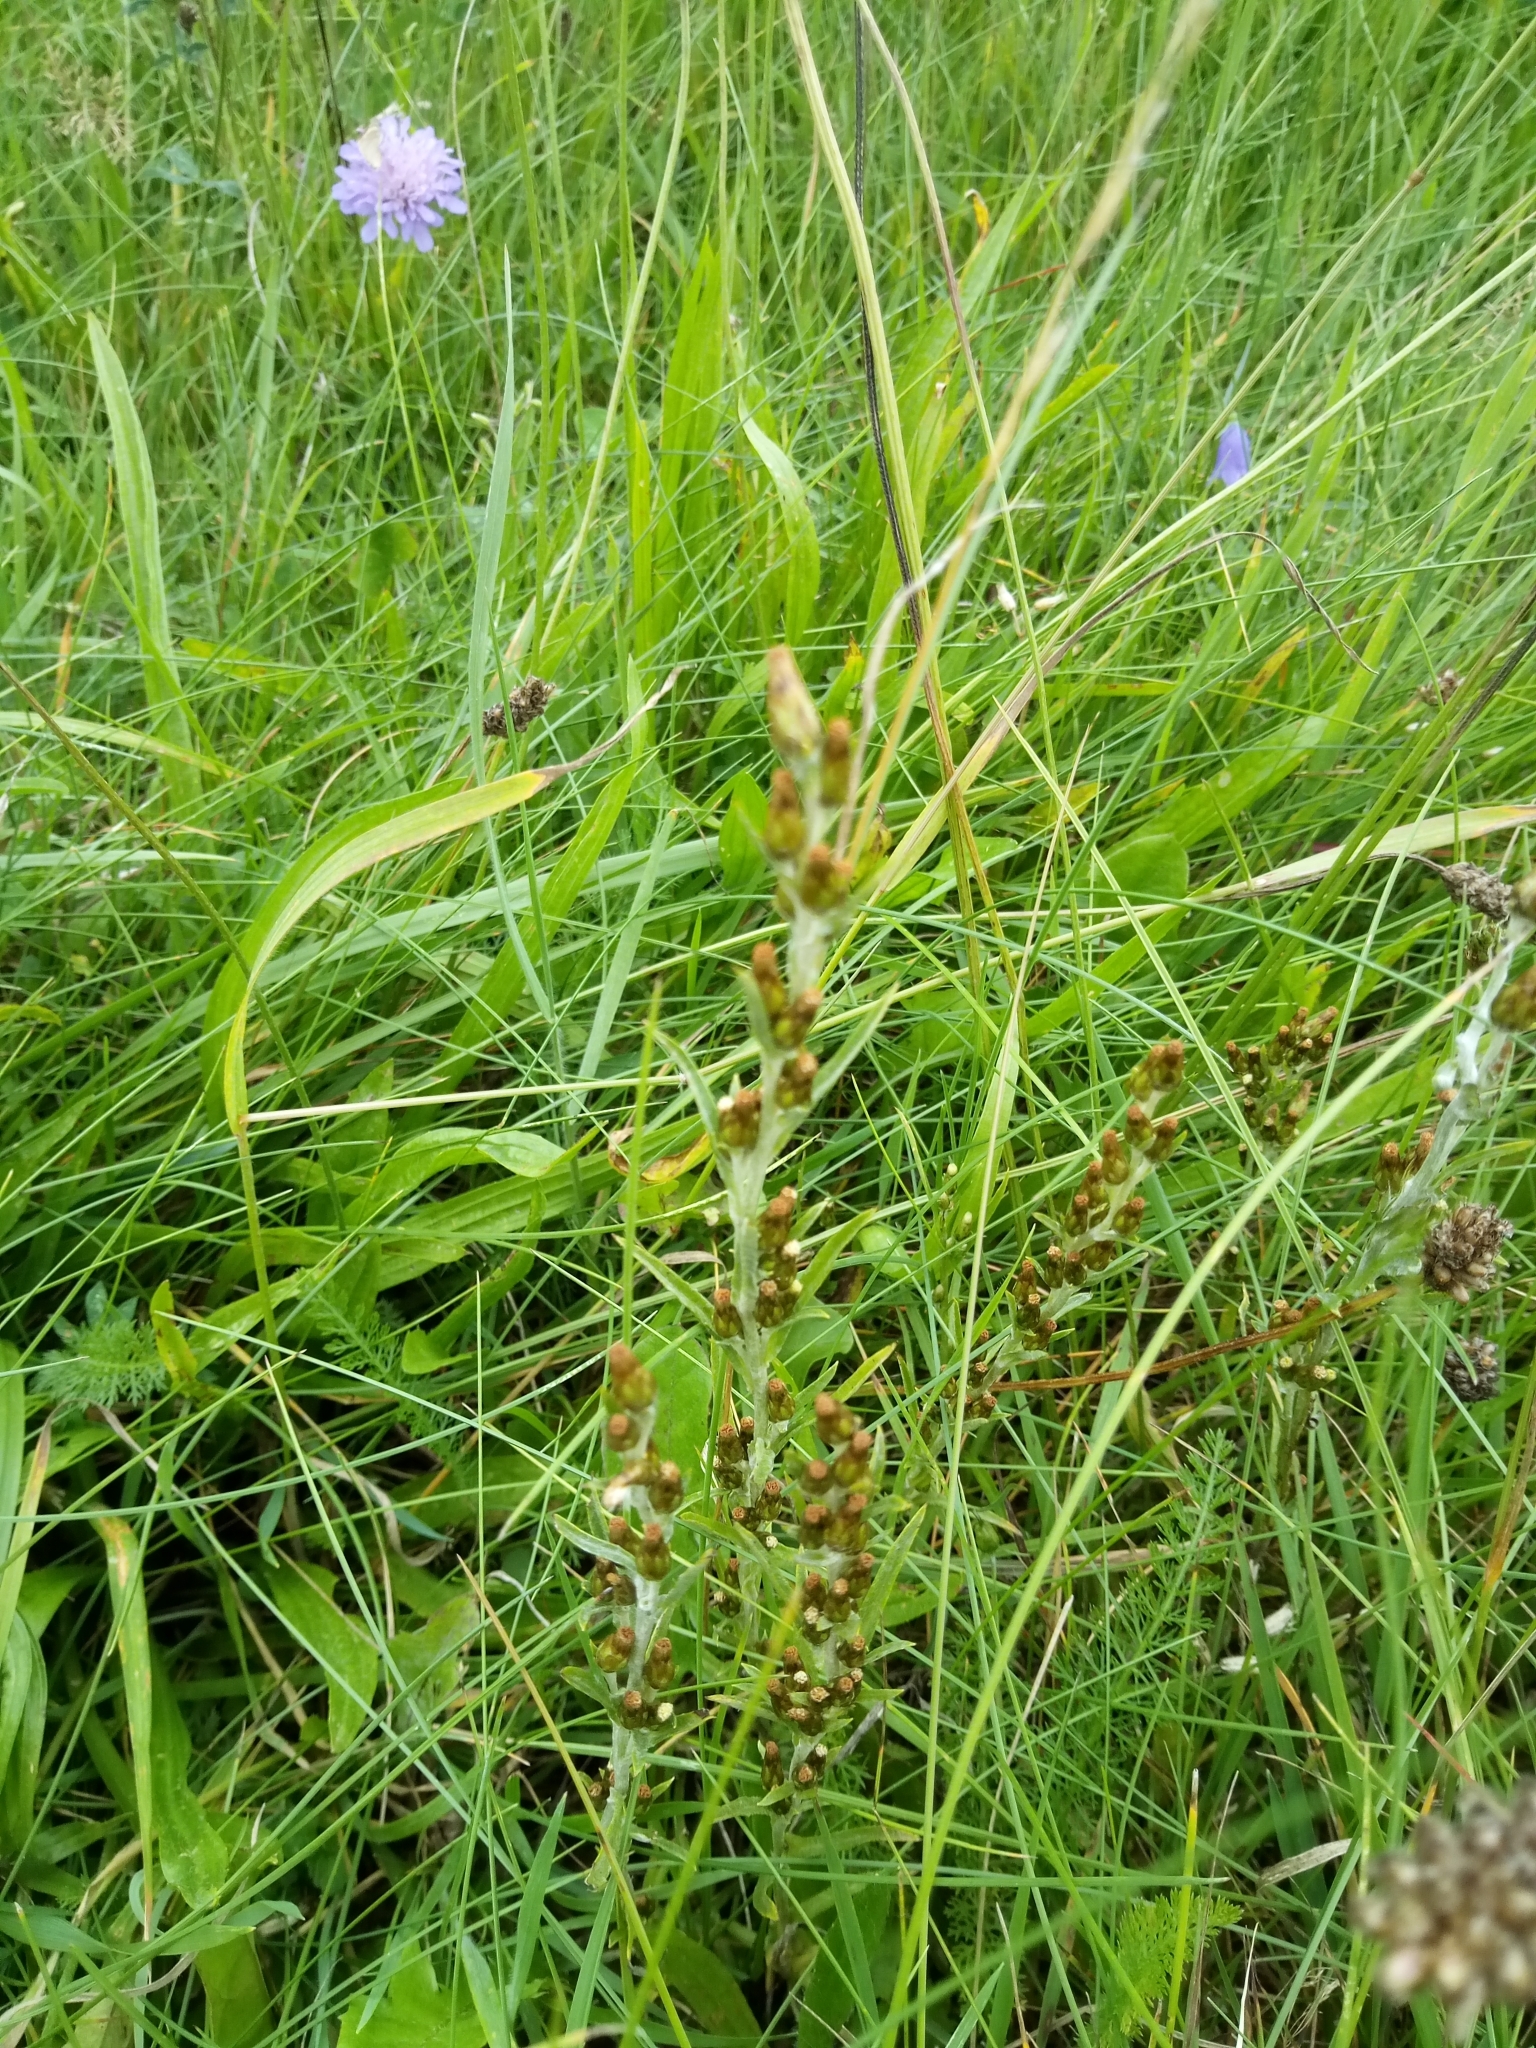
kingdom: Plantae
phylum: Tracheophyta
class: Magnoliopsida
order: Asterales
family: Asteraceae
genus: Omalotheca
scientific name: Omalotheca sylvatica
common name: Heath cudweed
